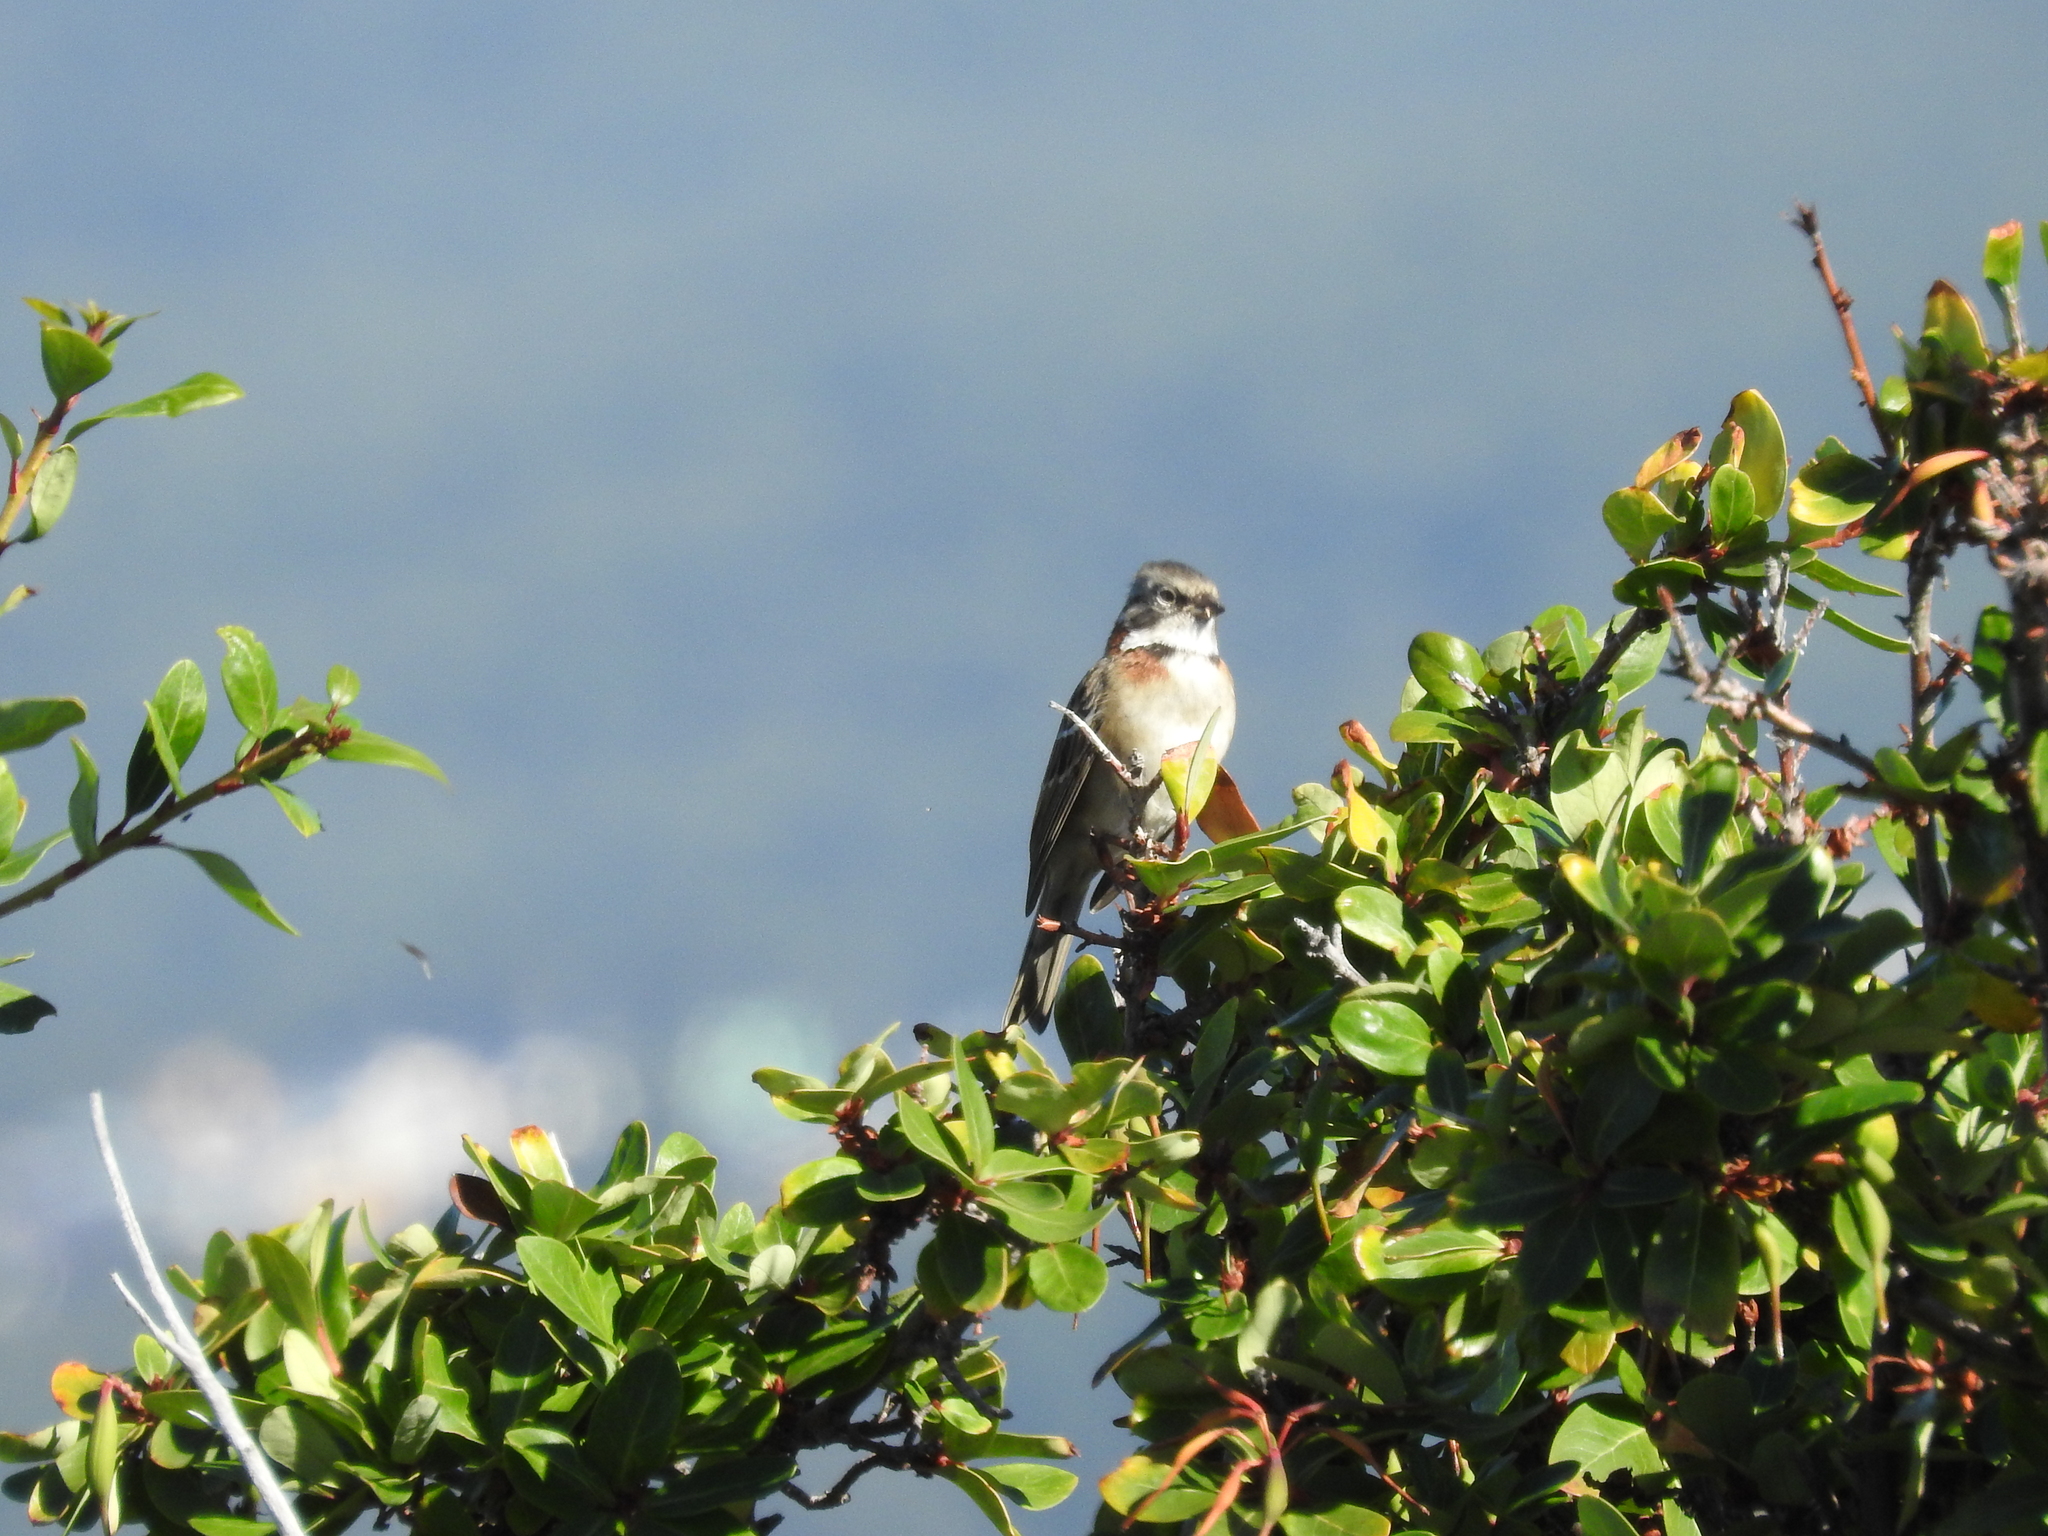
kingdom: Animalia
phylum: Chordata
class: Aves
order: Passeriformes
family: Passerellidae
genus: Zonotrichia
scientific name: Zonotrichia capensis
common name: Rufous-collared sparrow
